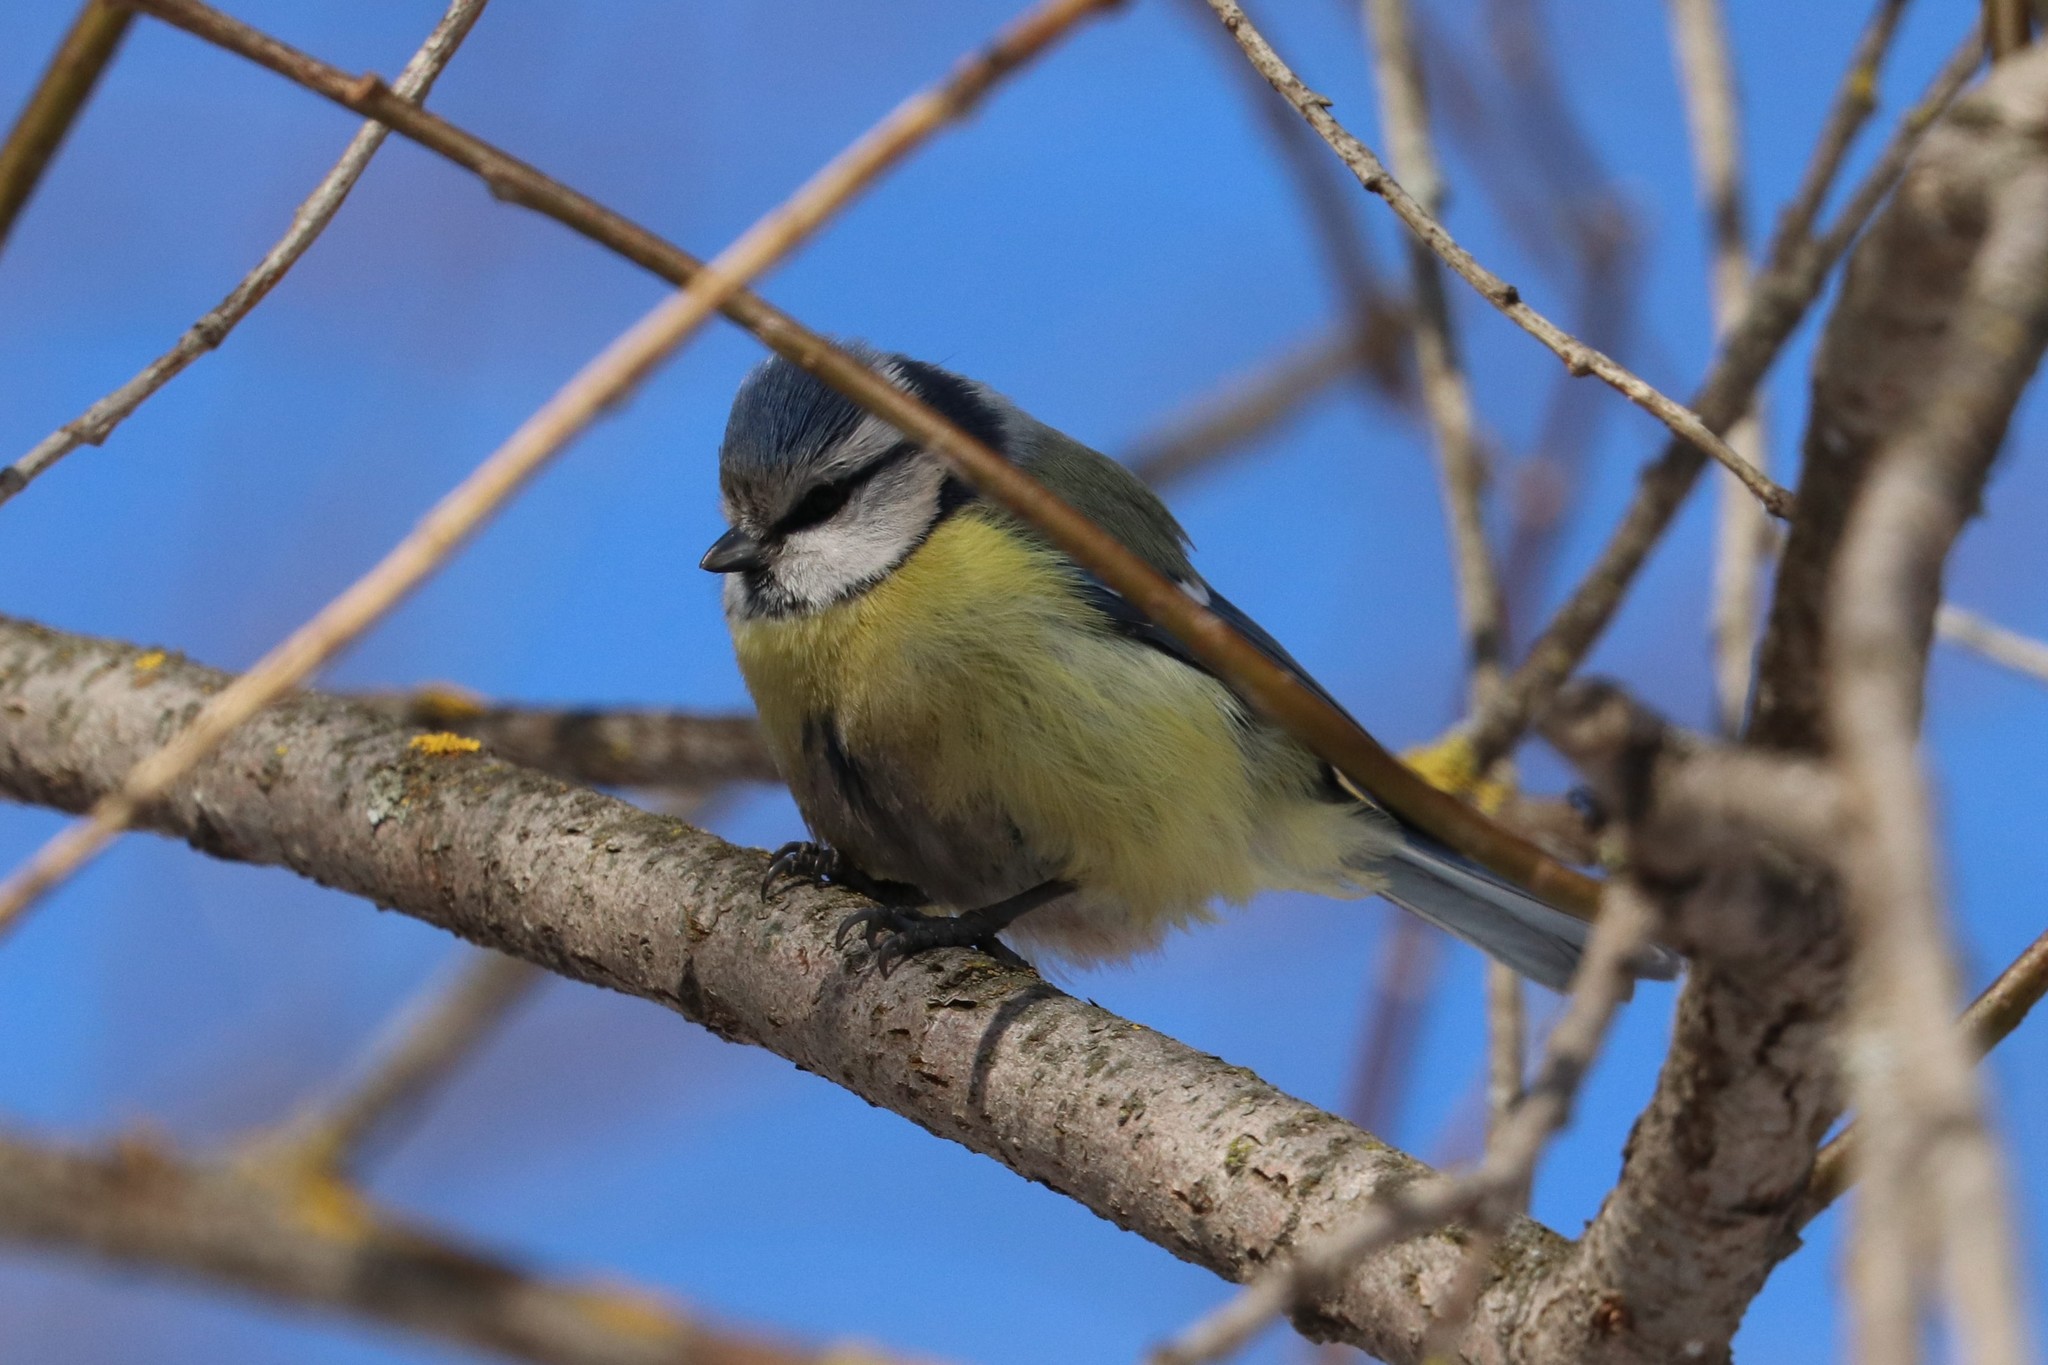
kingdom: Animalia
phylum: Chordata
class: Aves
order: Passeriformes
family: Paridae
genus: Cyanistes
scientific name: Cyanistes caeruleus
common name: Eurasian blue tit
